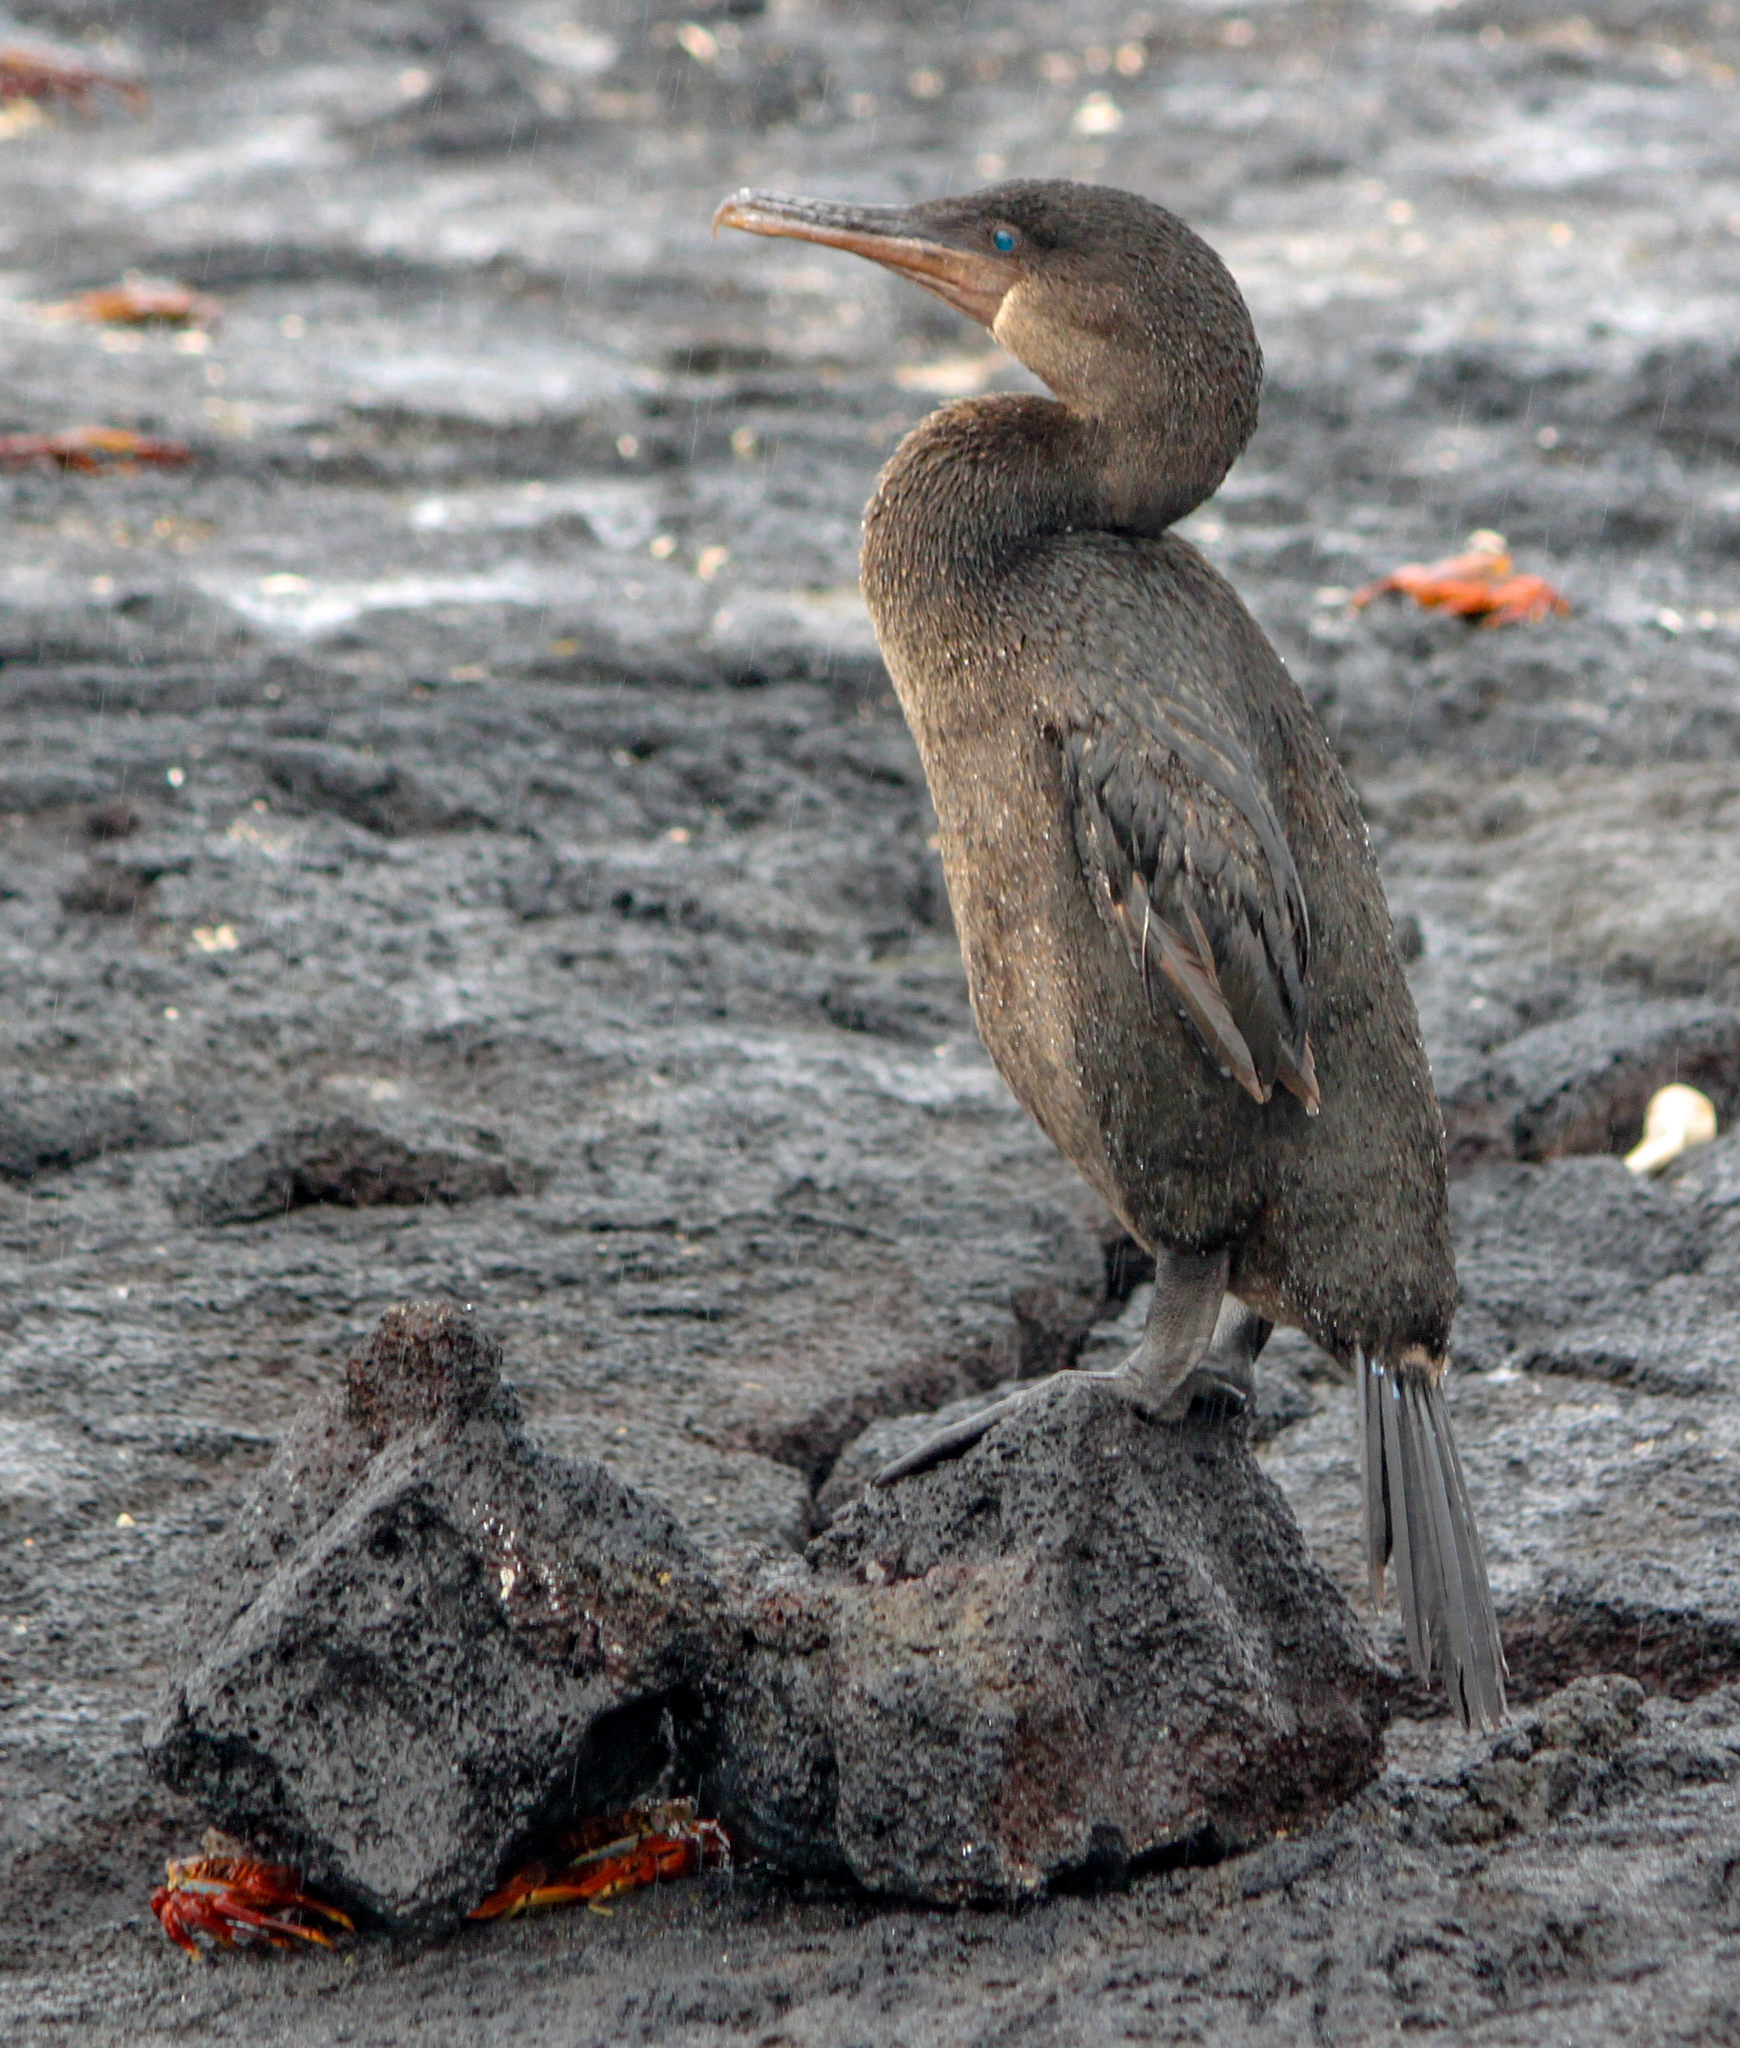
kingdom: Animalia
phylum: Chordata
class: Aves
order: Suliformes
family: Phalacrocoracidae
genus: Phalacrocorax
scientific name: Phalacrocorax harrisi
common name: Flightless cormorant
